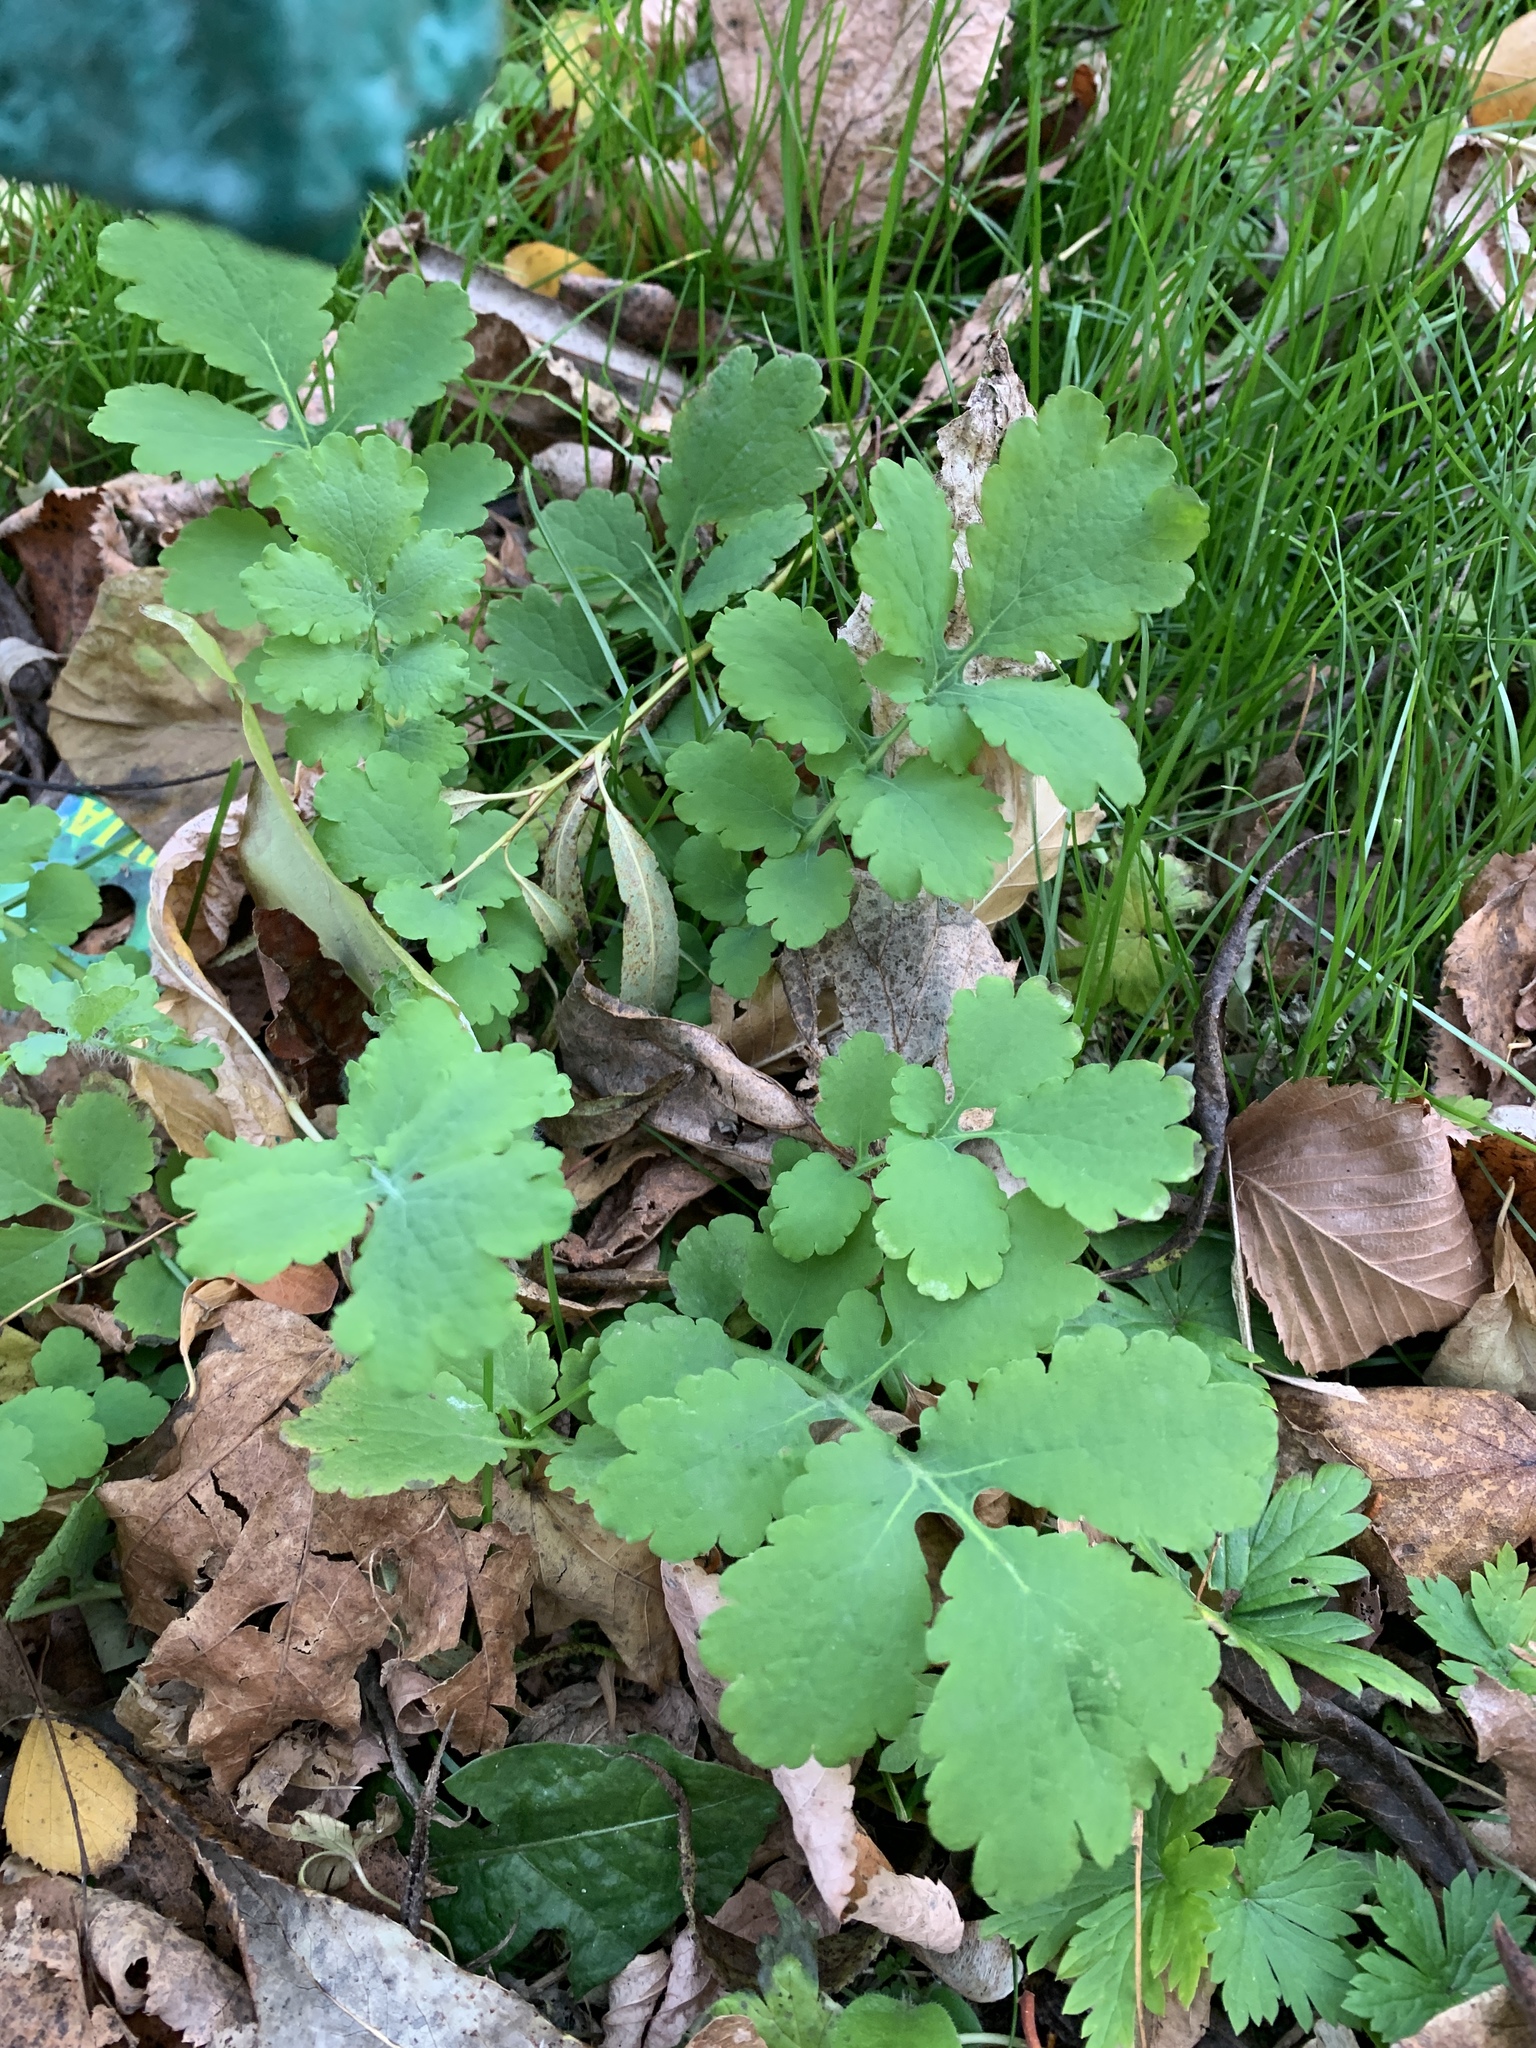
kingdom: Plantae
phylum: Tracheophyta
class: Magnoliopsida
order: Ranunculales
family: Papaveraceae
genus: Chelidonium
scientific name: Chelidonium majus
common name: Greater celandine
